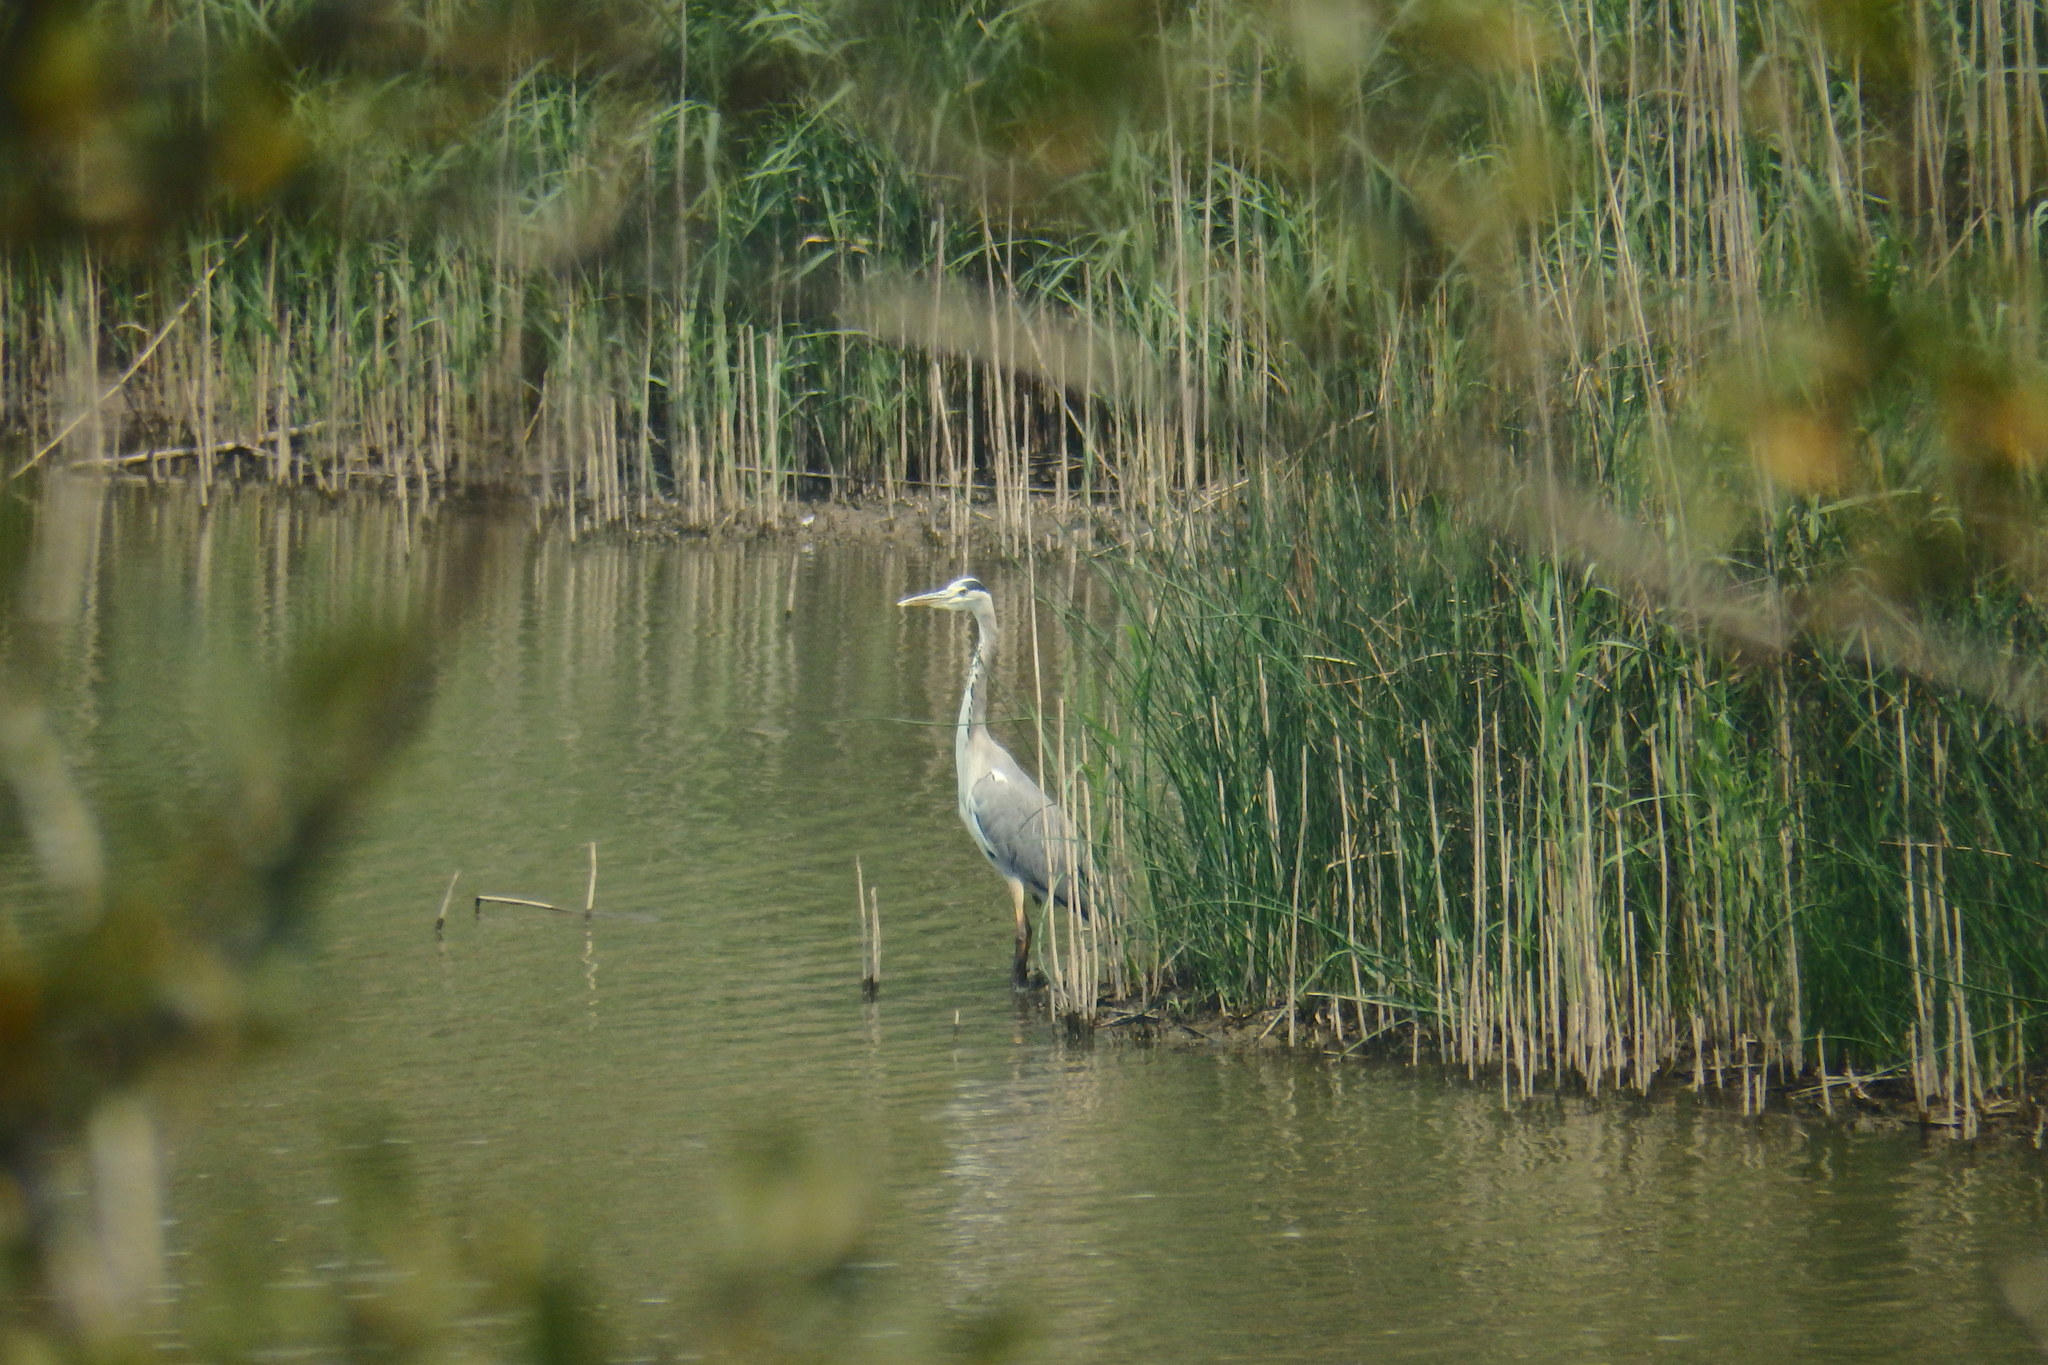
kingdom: Animalia
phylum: Chordata
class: Aves
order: Pelecaniformes
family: Ardeidae
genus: Ardea
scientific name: Ardea cinerea
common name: Grey heron
